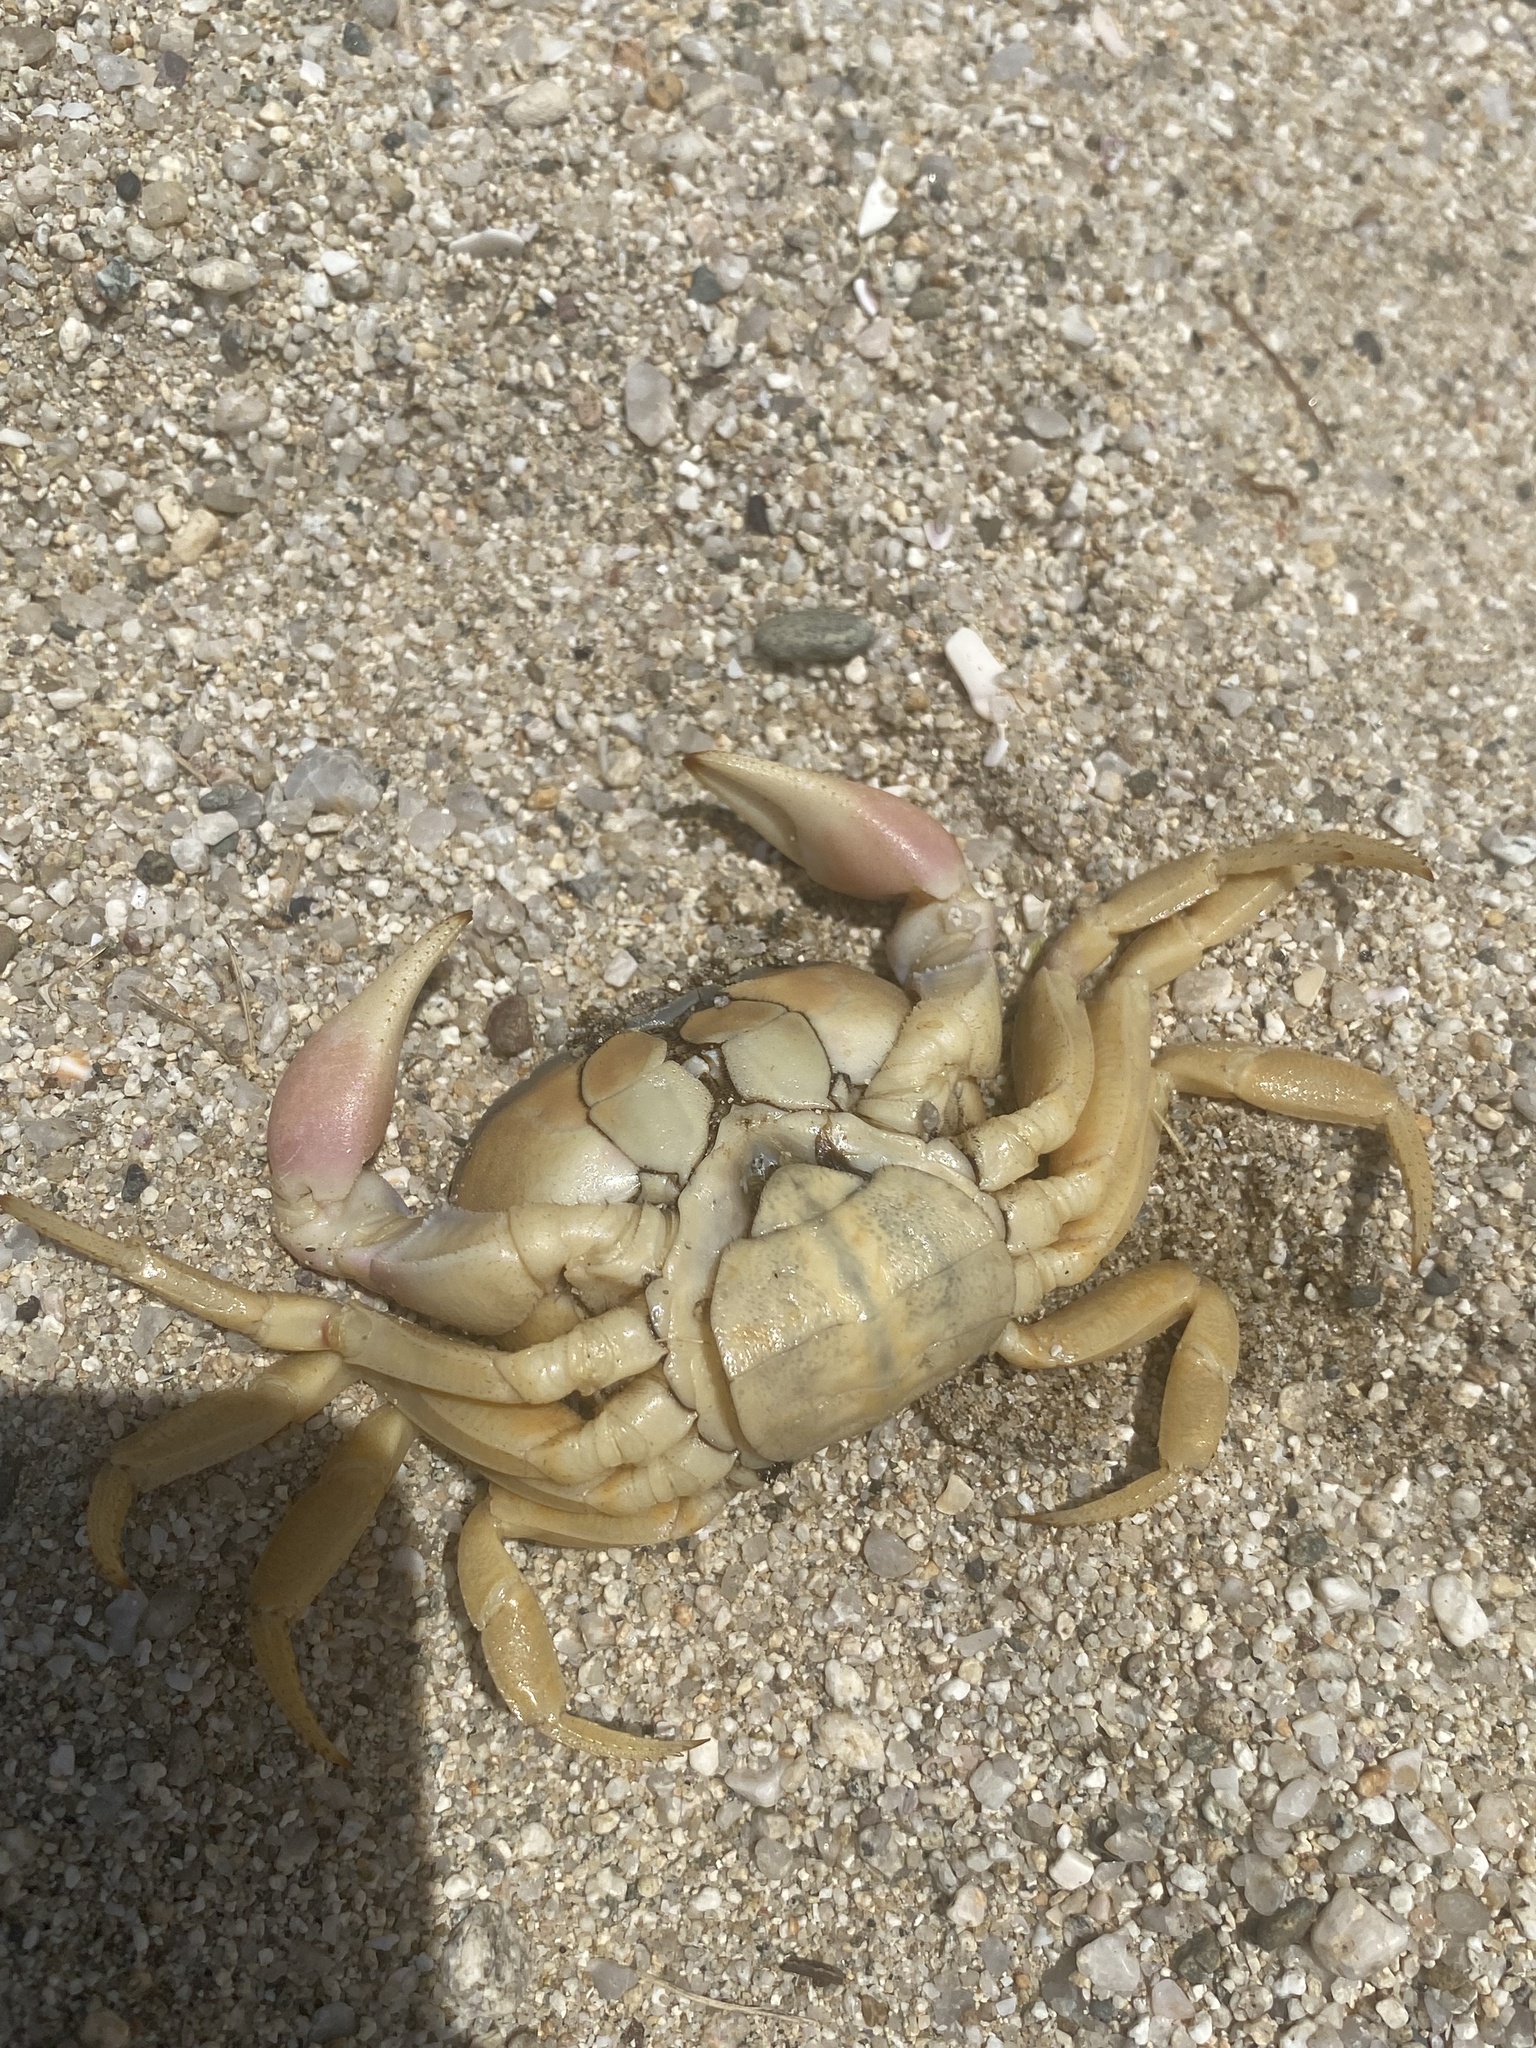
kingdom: Animalia
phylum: Arthropoda
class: Malacostraca
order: Decapoda
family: Gecarcinidae
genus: Gecarcinus
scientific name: Gecarcinus quadratus
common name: Halloween crab
